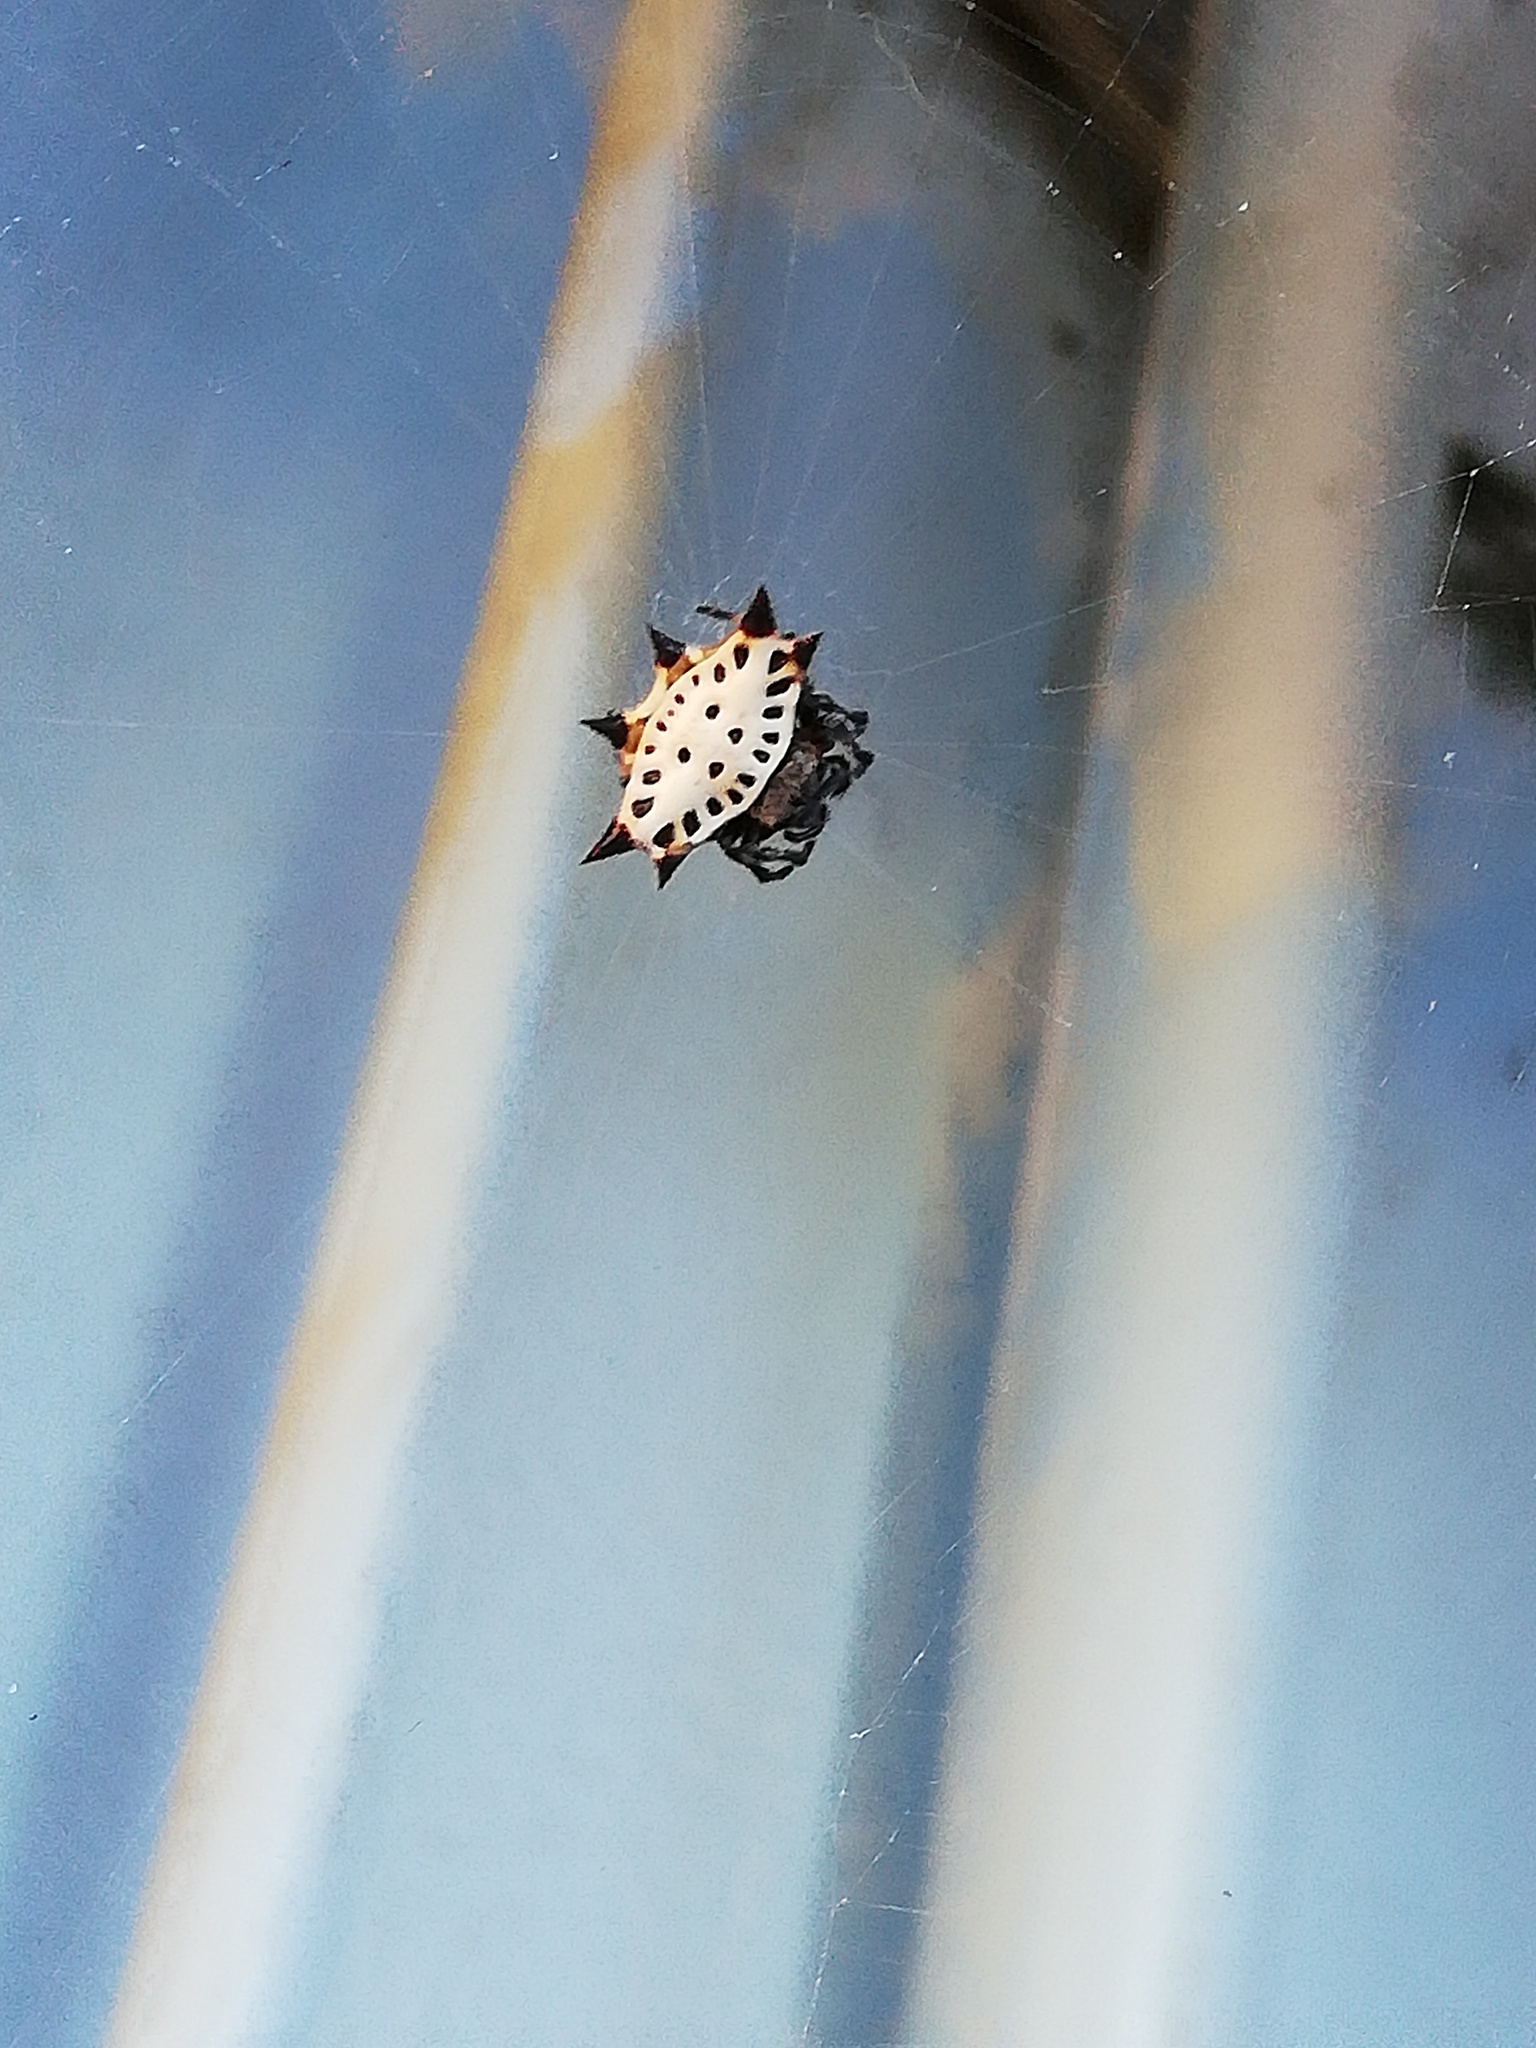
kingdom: Animalia
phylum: Arthropoda
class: Arachnida
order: Araneae
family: Araneidae
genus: Gasteracantha
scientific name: Gasteracantha cancriformis
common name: Orb weavers
